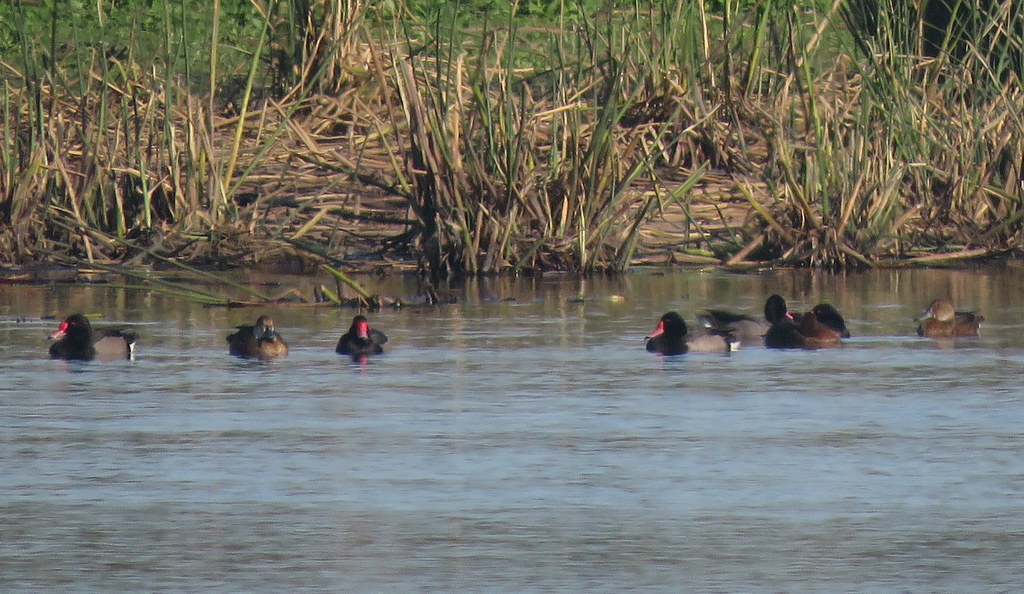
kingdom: Animalia
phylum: Chordata
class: Aves
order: Anseriformes
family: Anatidae
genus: Netta
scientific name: Netta peposaca
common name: Rosy-billed pochard
